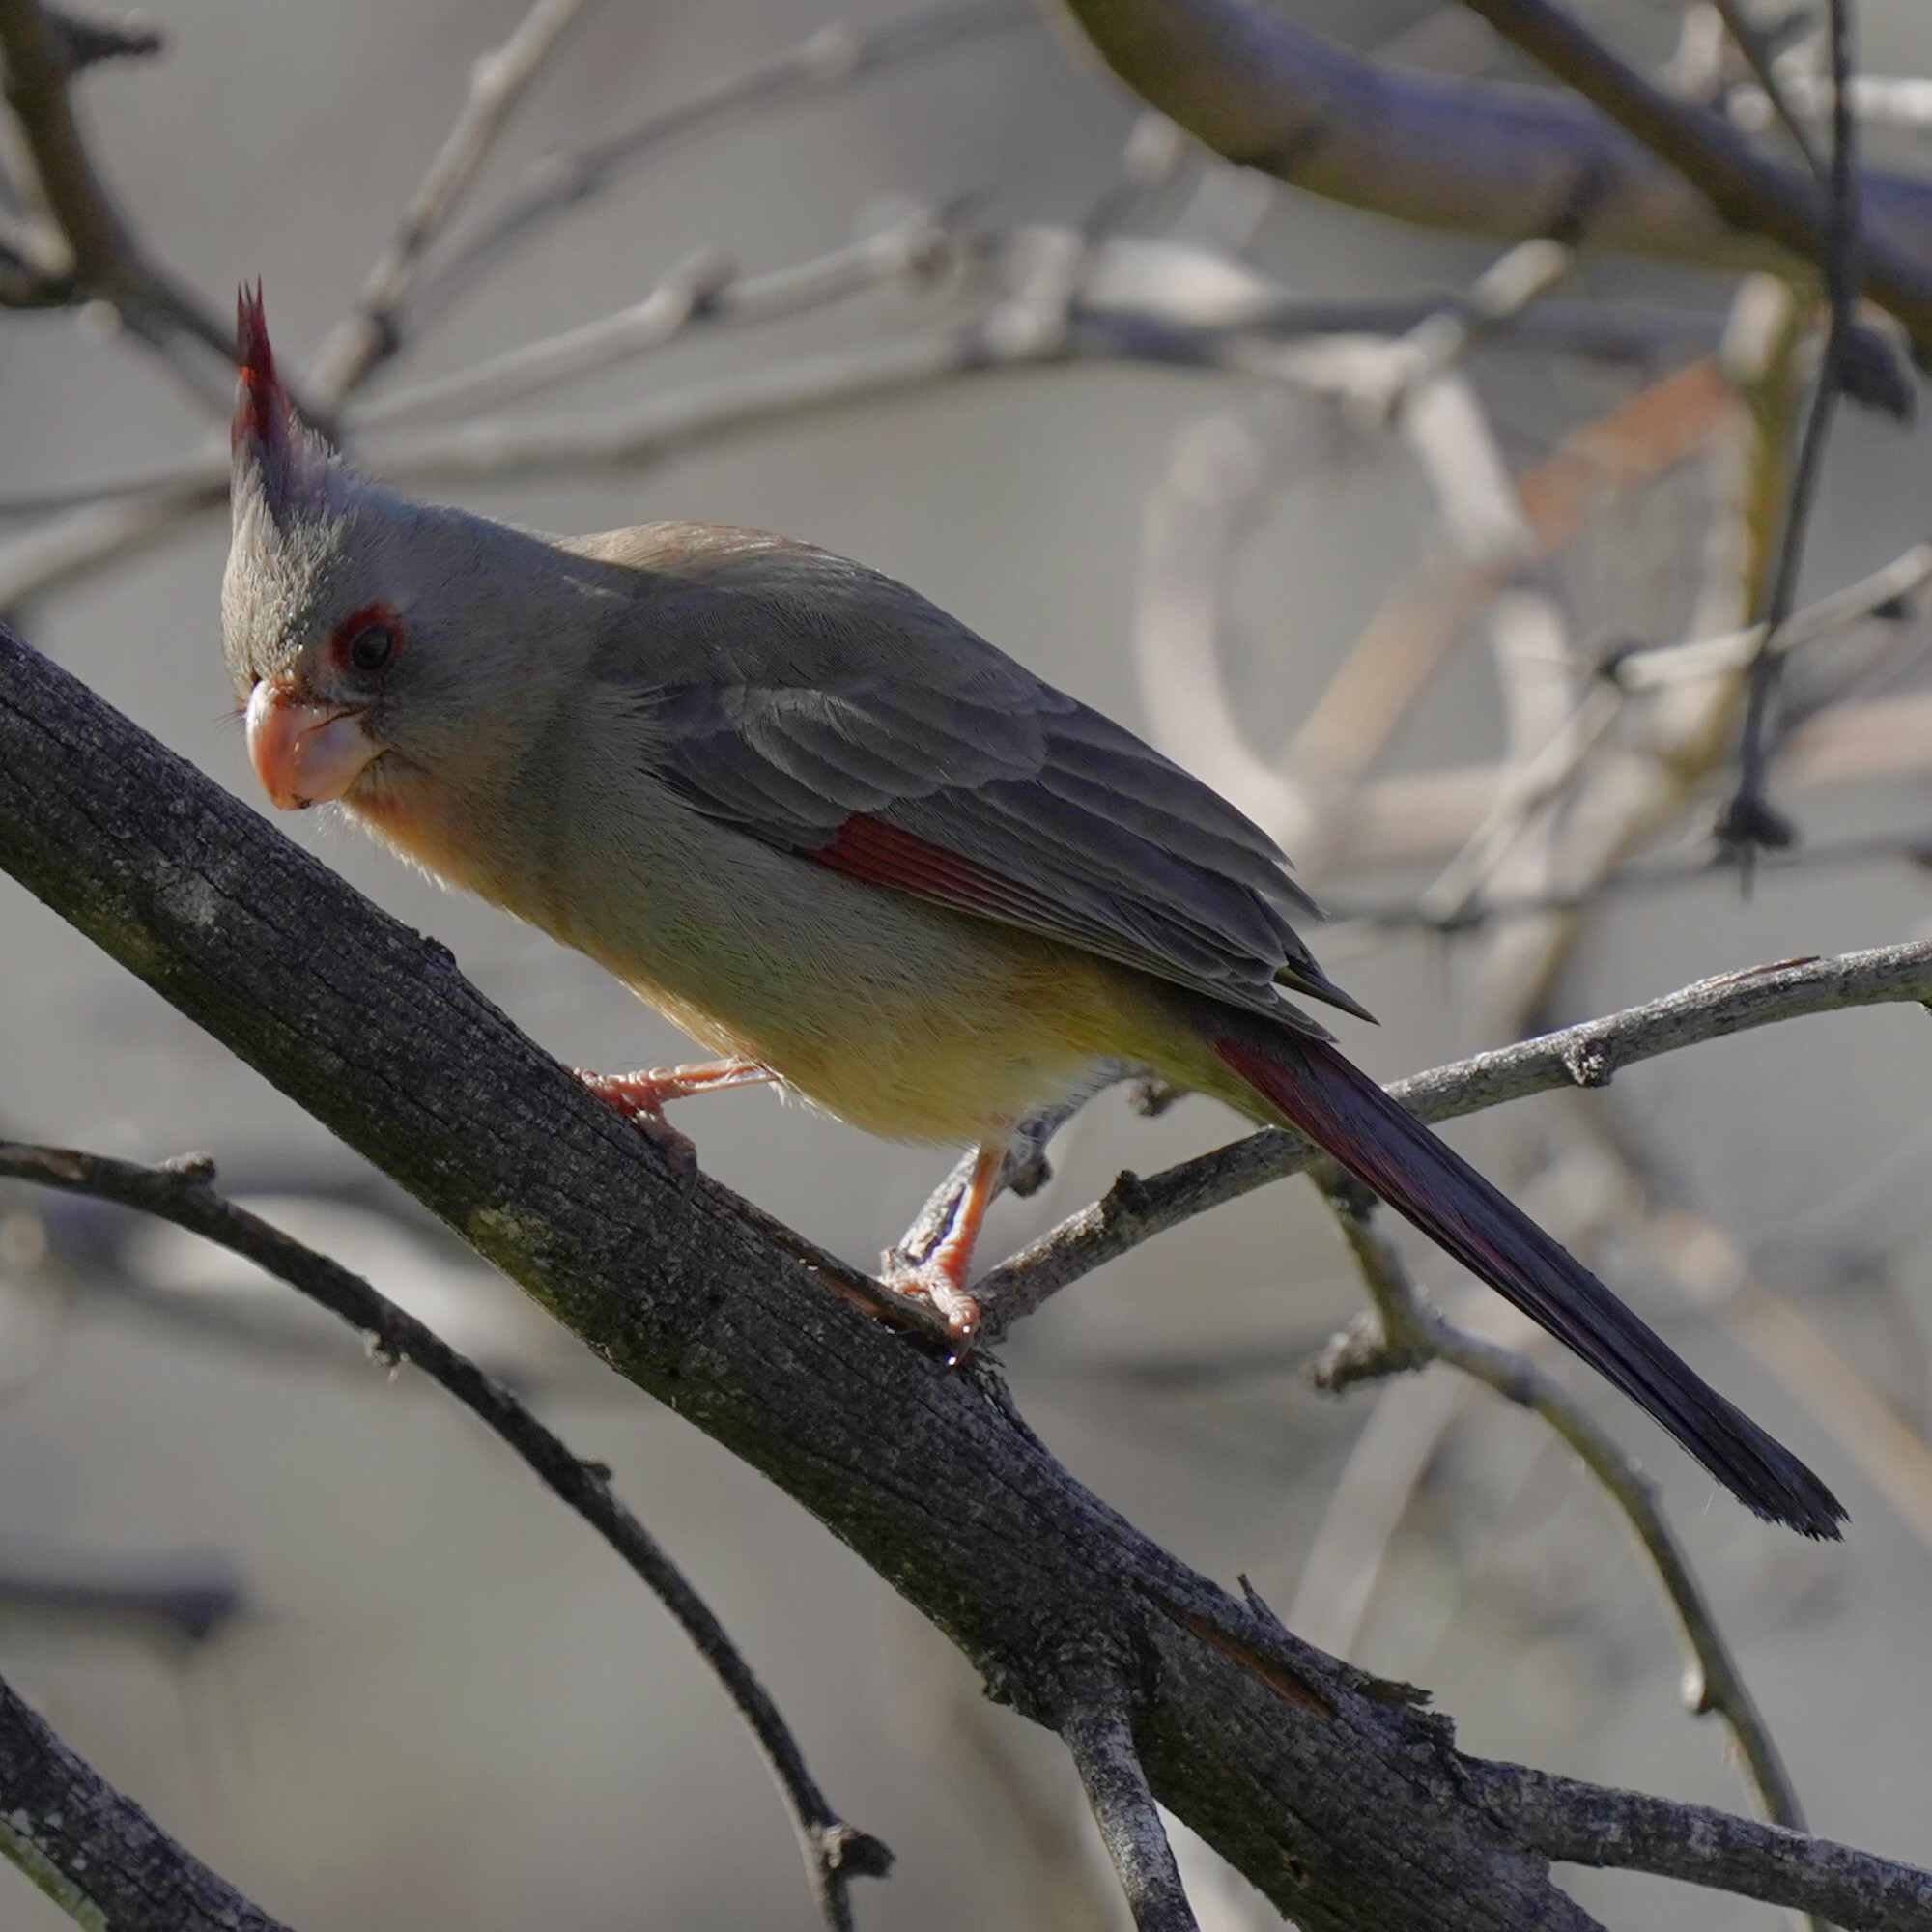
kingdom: Animalia
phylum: Chordata
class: Aves
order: Passeriformes
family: Cardinalidae
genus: Cardinalis
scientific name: Cardinalis sinuatus
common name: Pyrrhuloxia
